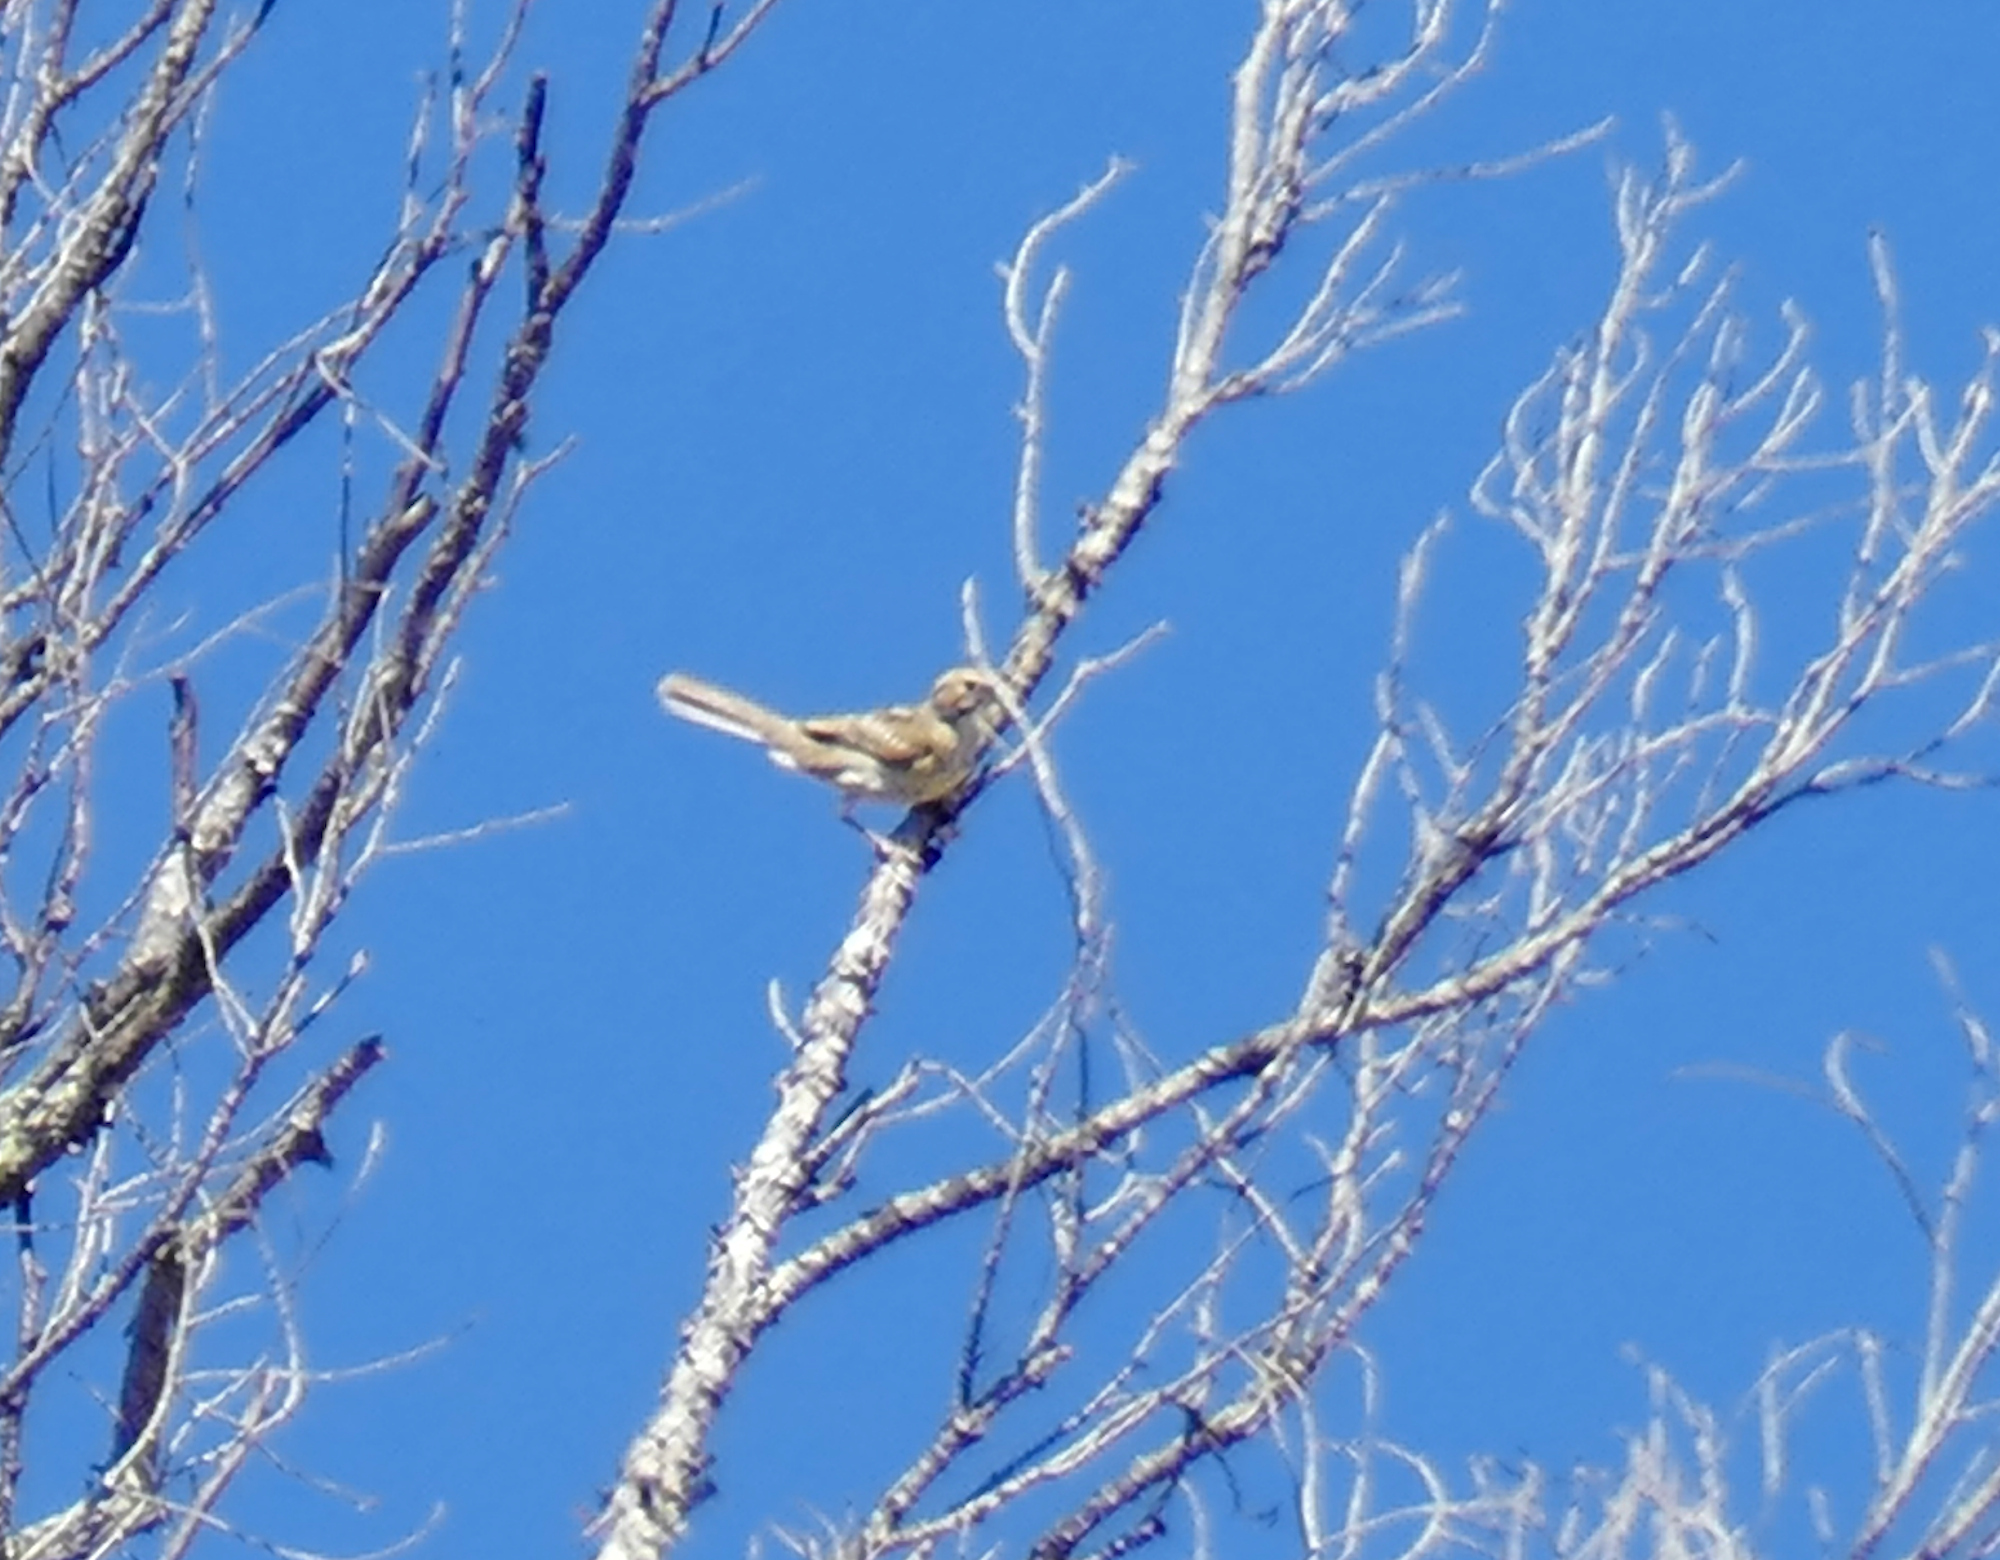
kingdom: Animalia
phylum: Chordata
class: Aves
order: Passeriformes
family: Passerellidae
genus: Chondestes
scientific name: Chondestes grammacus
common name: Lark sparrow
